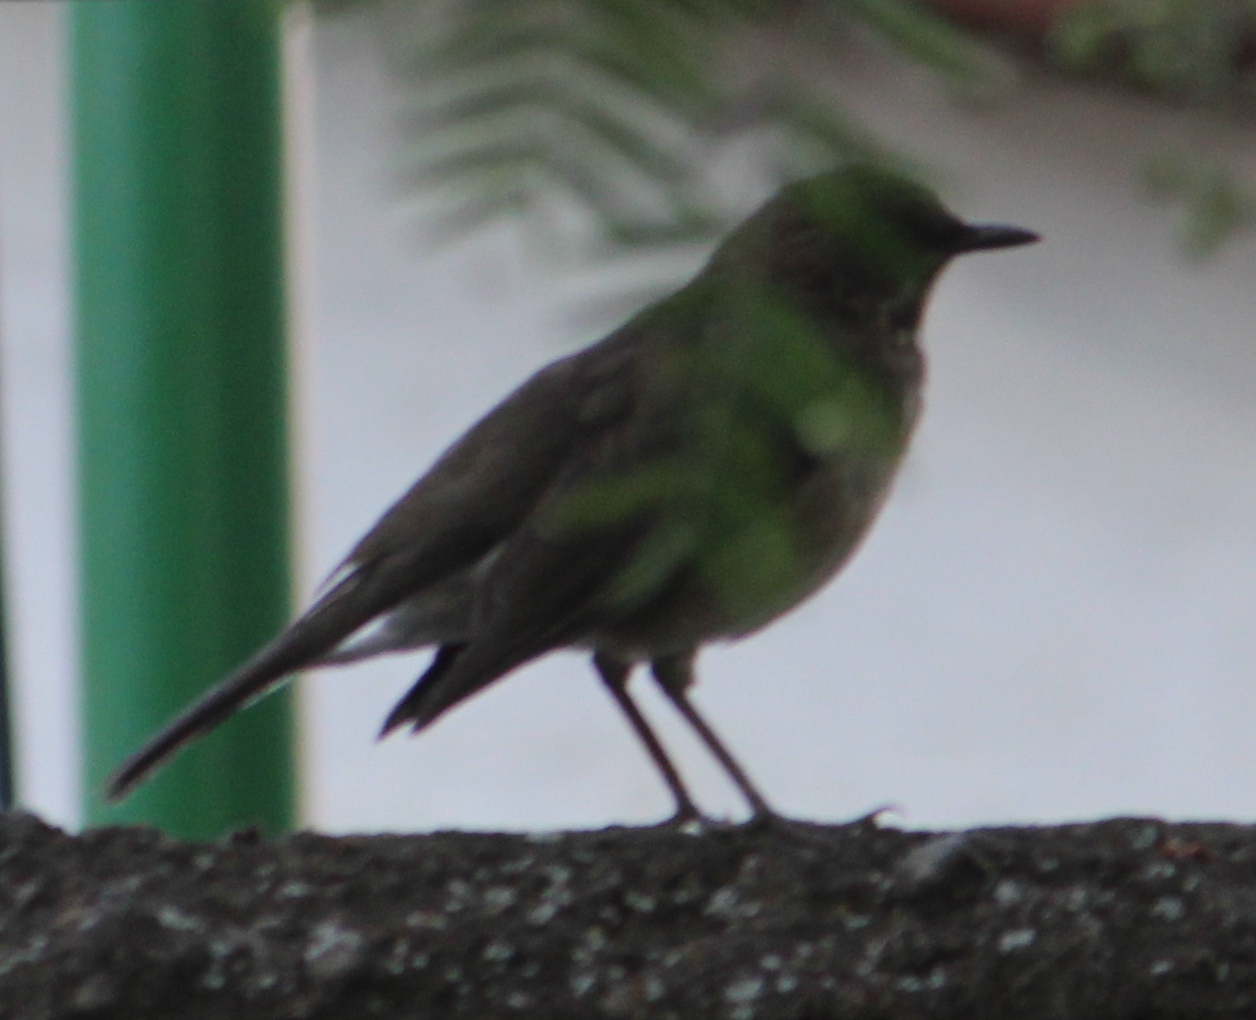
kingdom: Animalia
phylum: Chordata
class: Aves
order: Passeriformes
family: Turdidae
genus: Turdus
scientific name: Turdus amaurochalinus
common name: Creamy-bellied thrush
